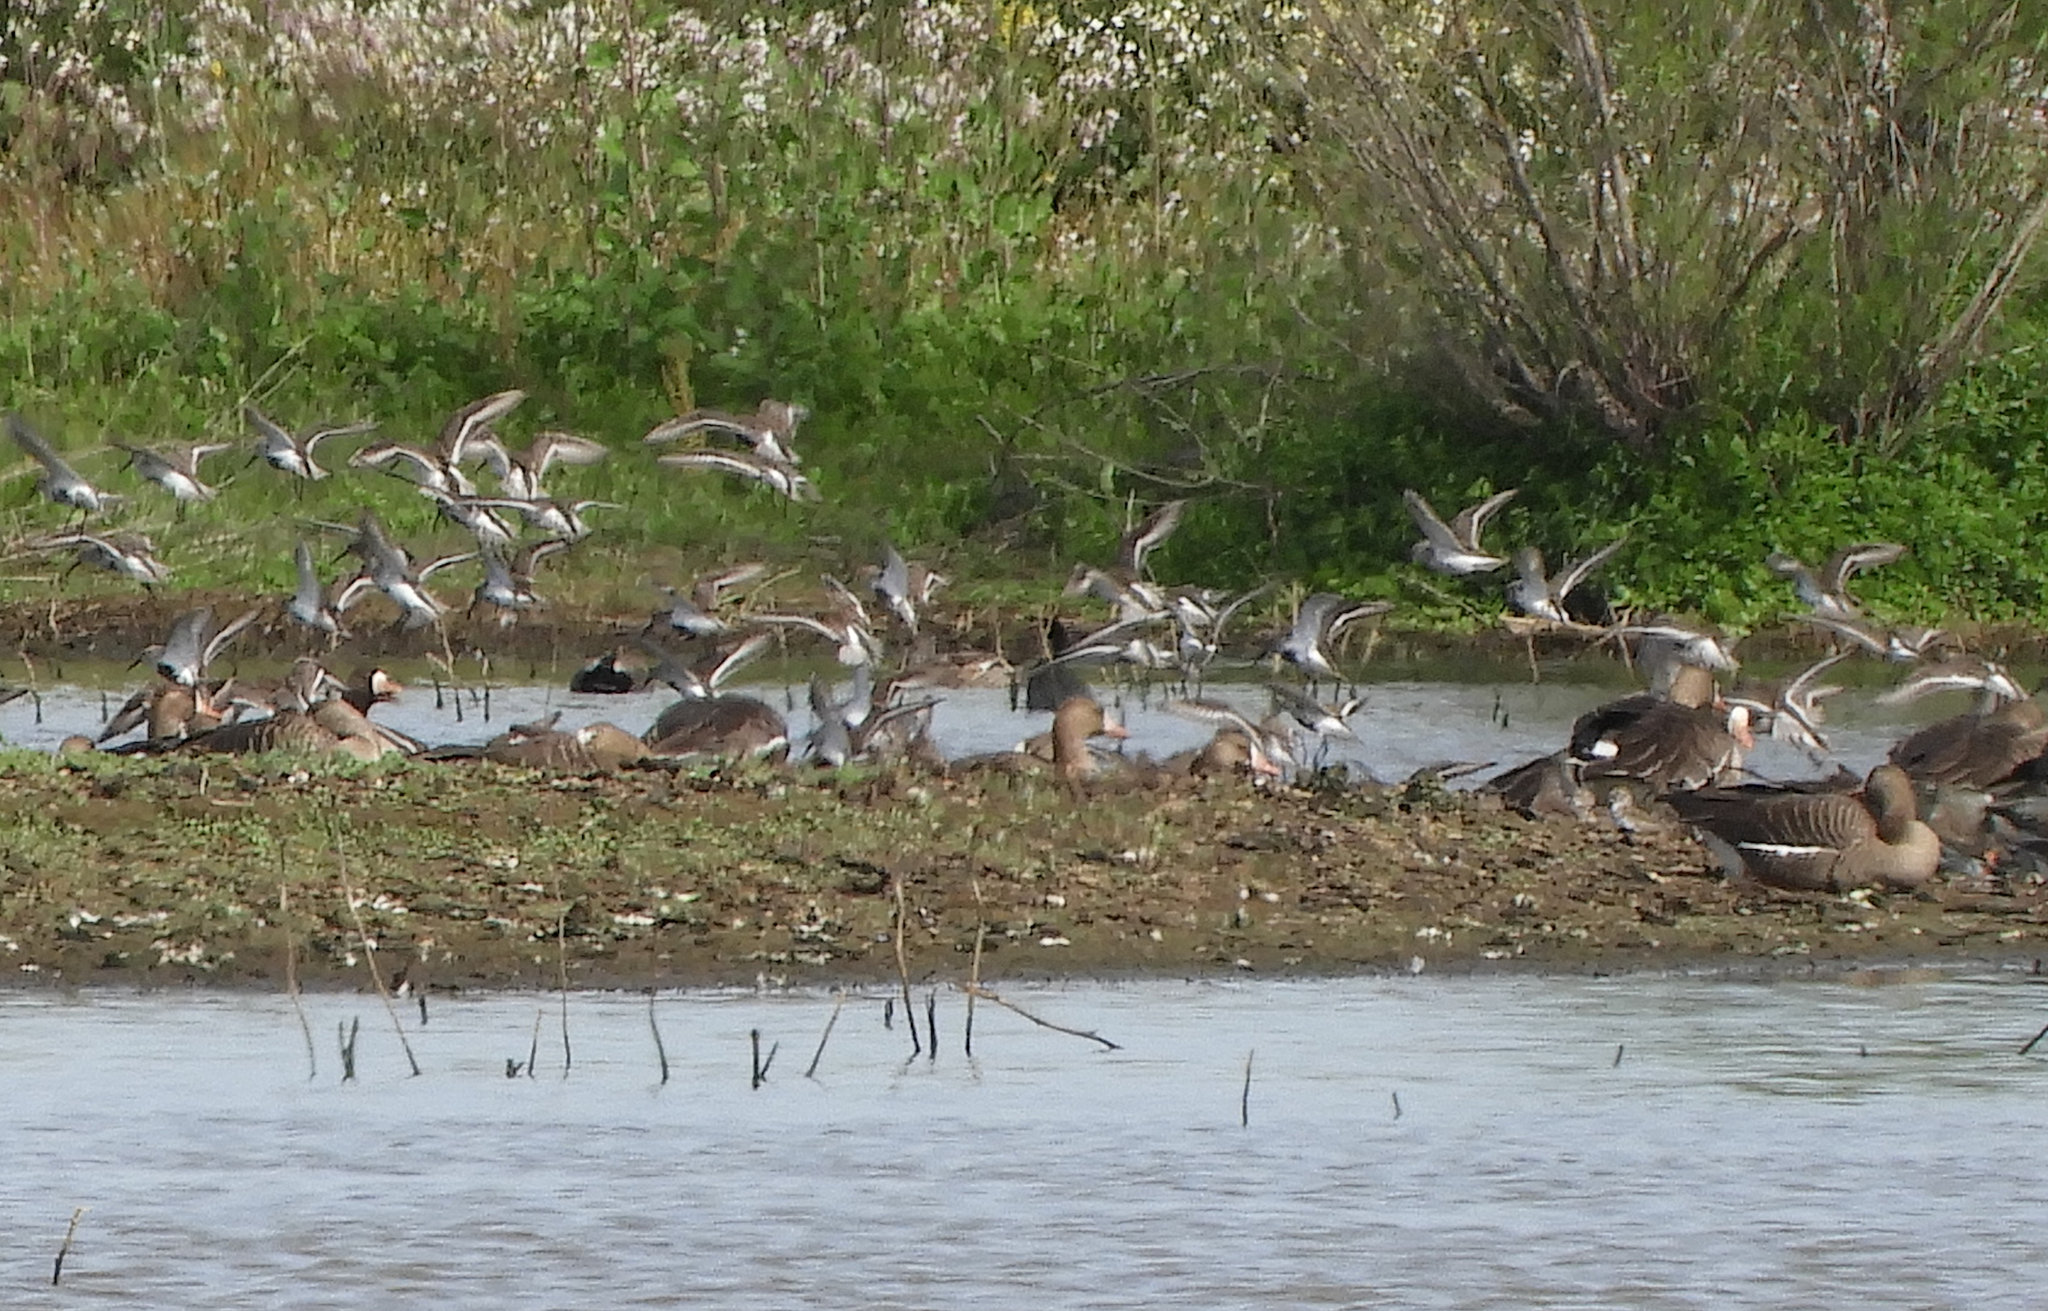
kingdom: Animalia
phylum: Chordata
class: Aves
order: Charadriiformes
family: Scolopacidae
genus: Calidris
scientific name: Calidris alpina
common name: Dunlin
